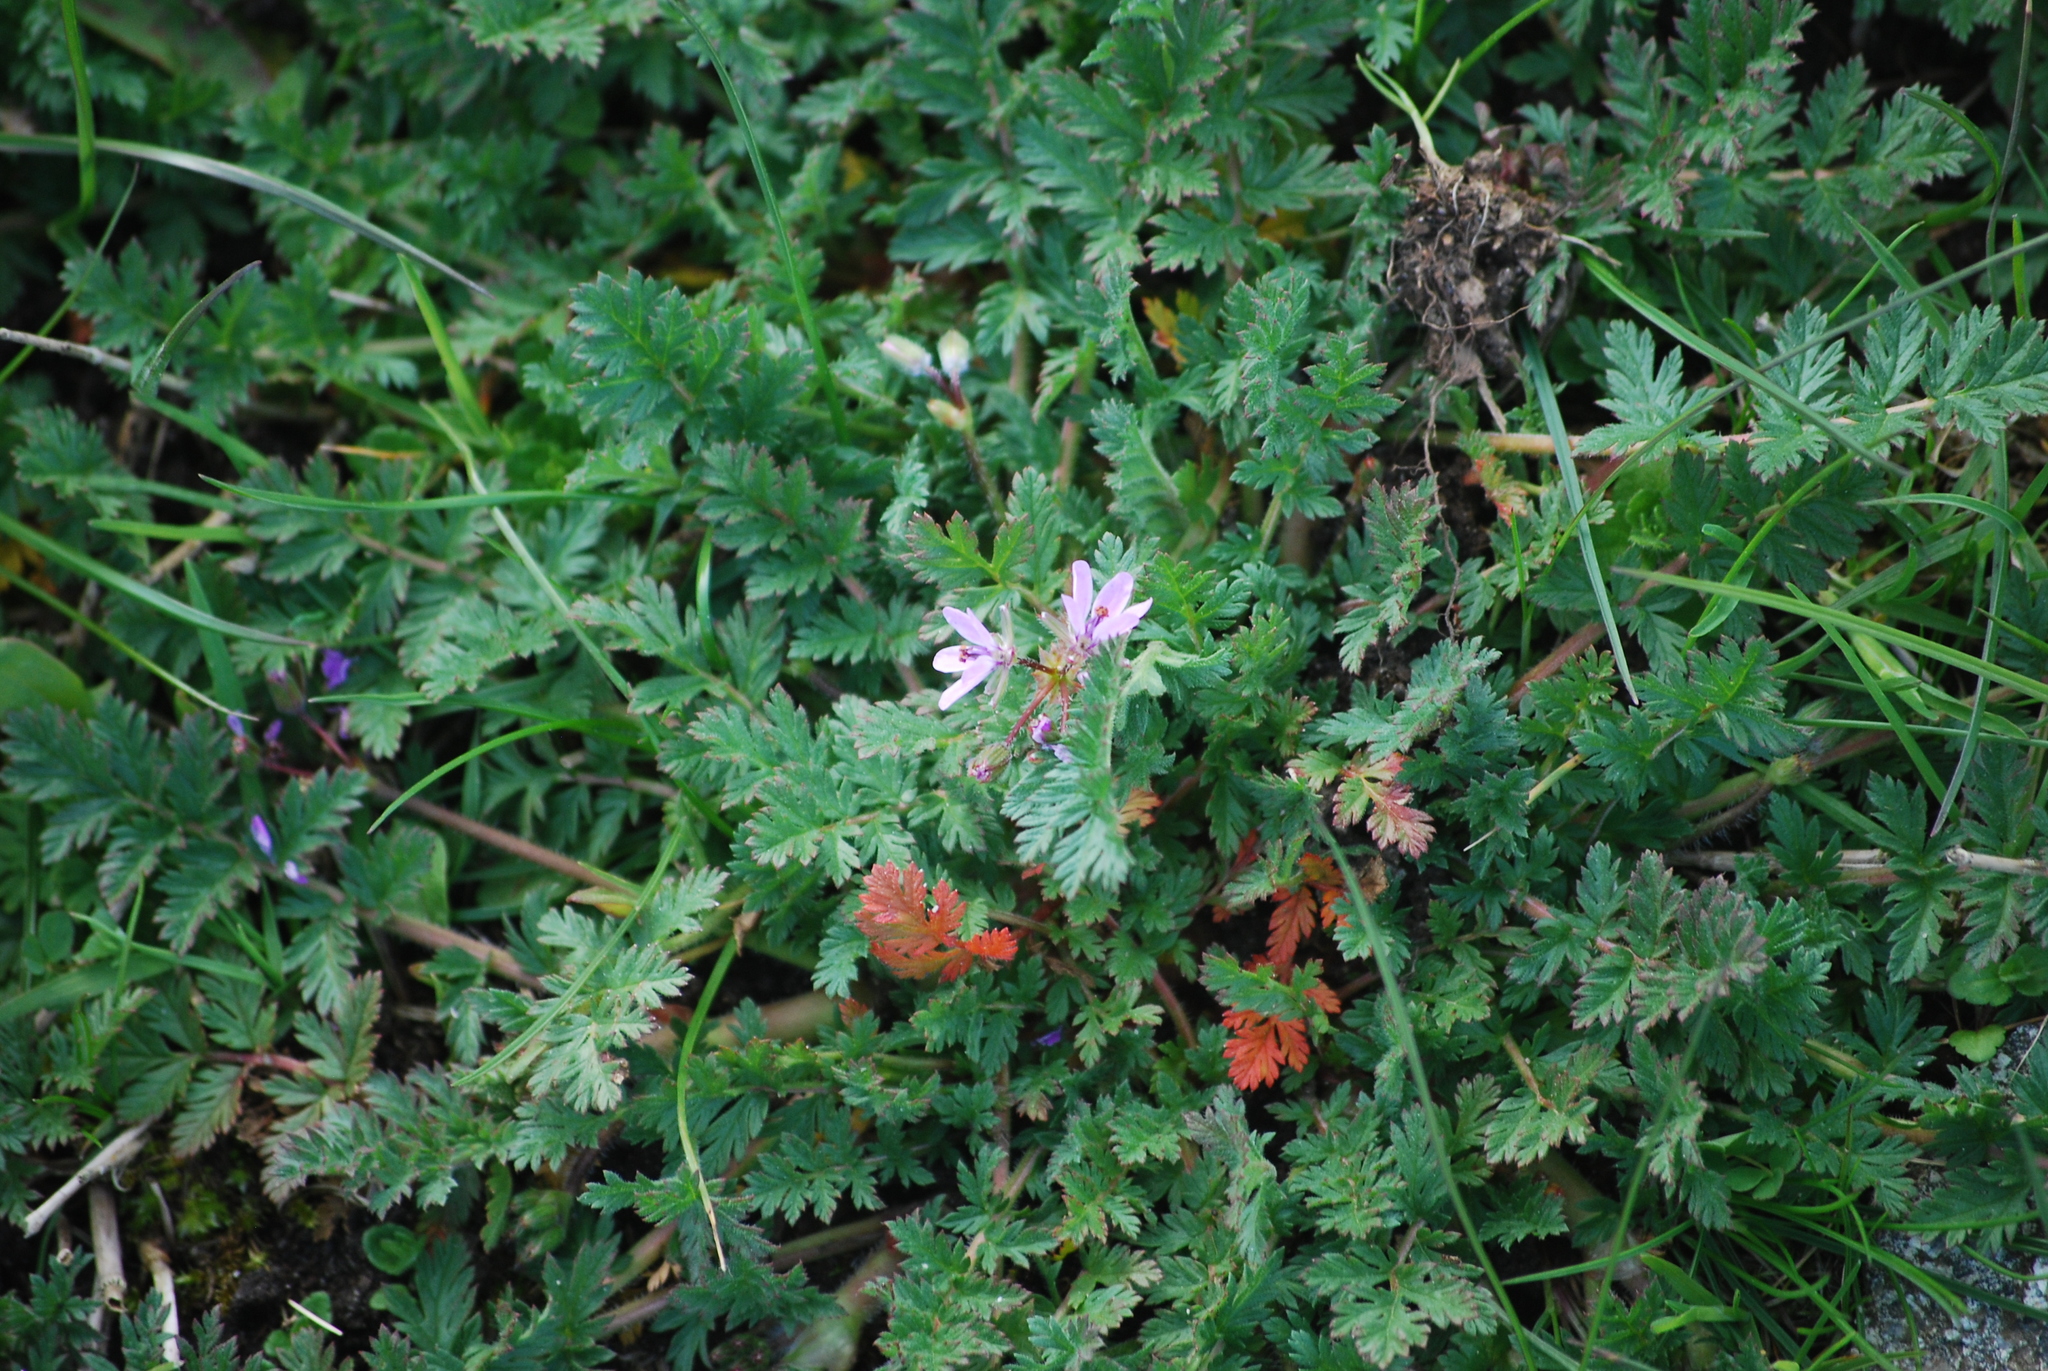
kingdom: Plantae
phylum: Tracheophyta
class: Magnoliopsida
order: Geraniales
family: Geraniaceae
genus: Erodium
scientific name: Erodium cicutarium
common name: Common stork's-bill
